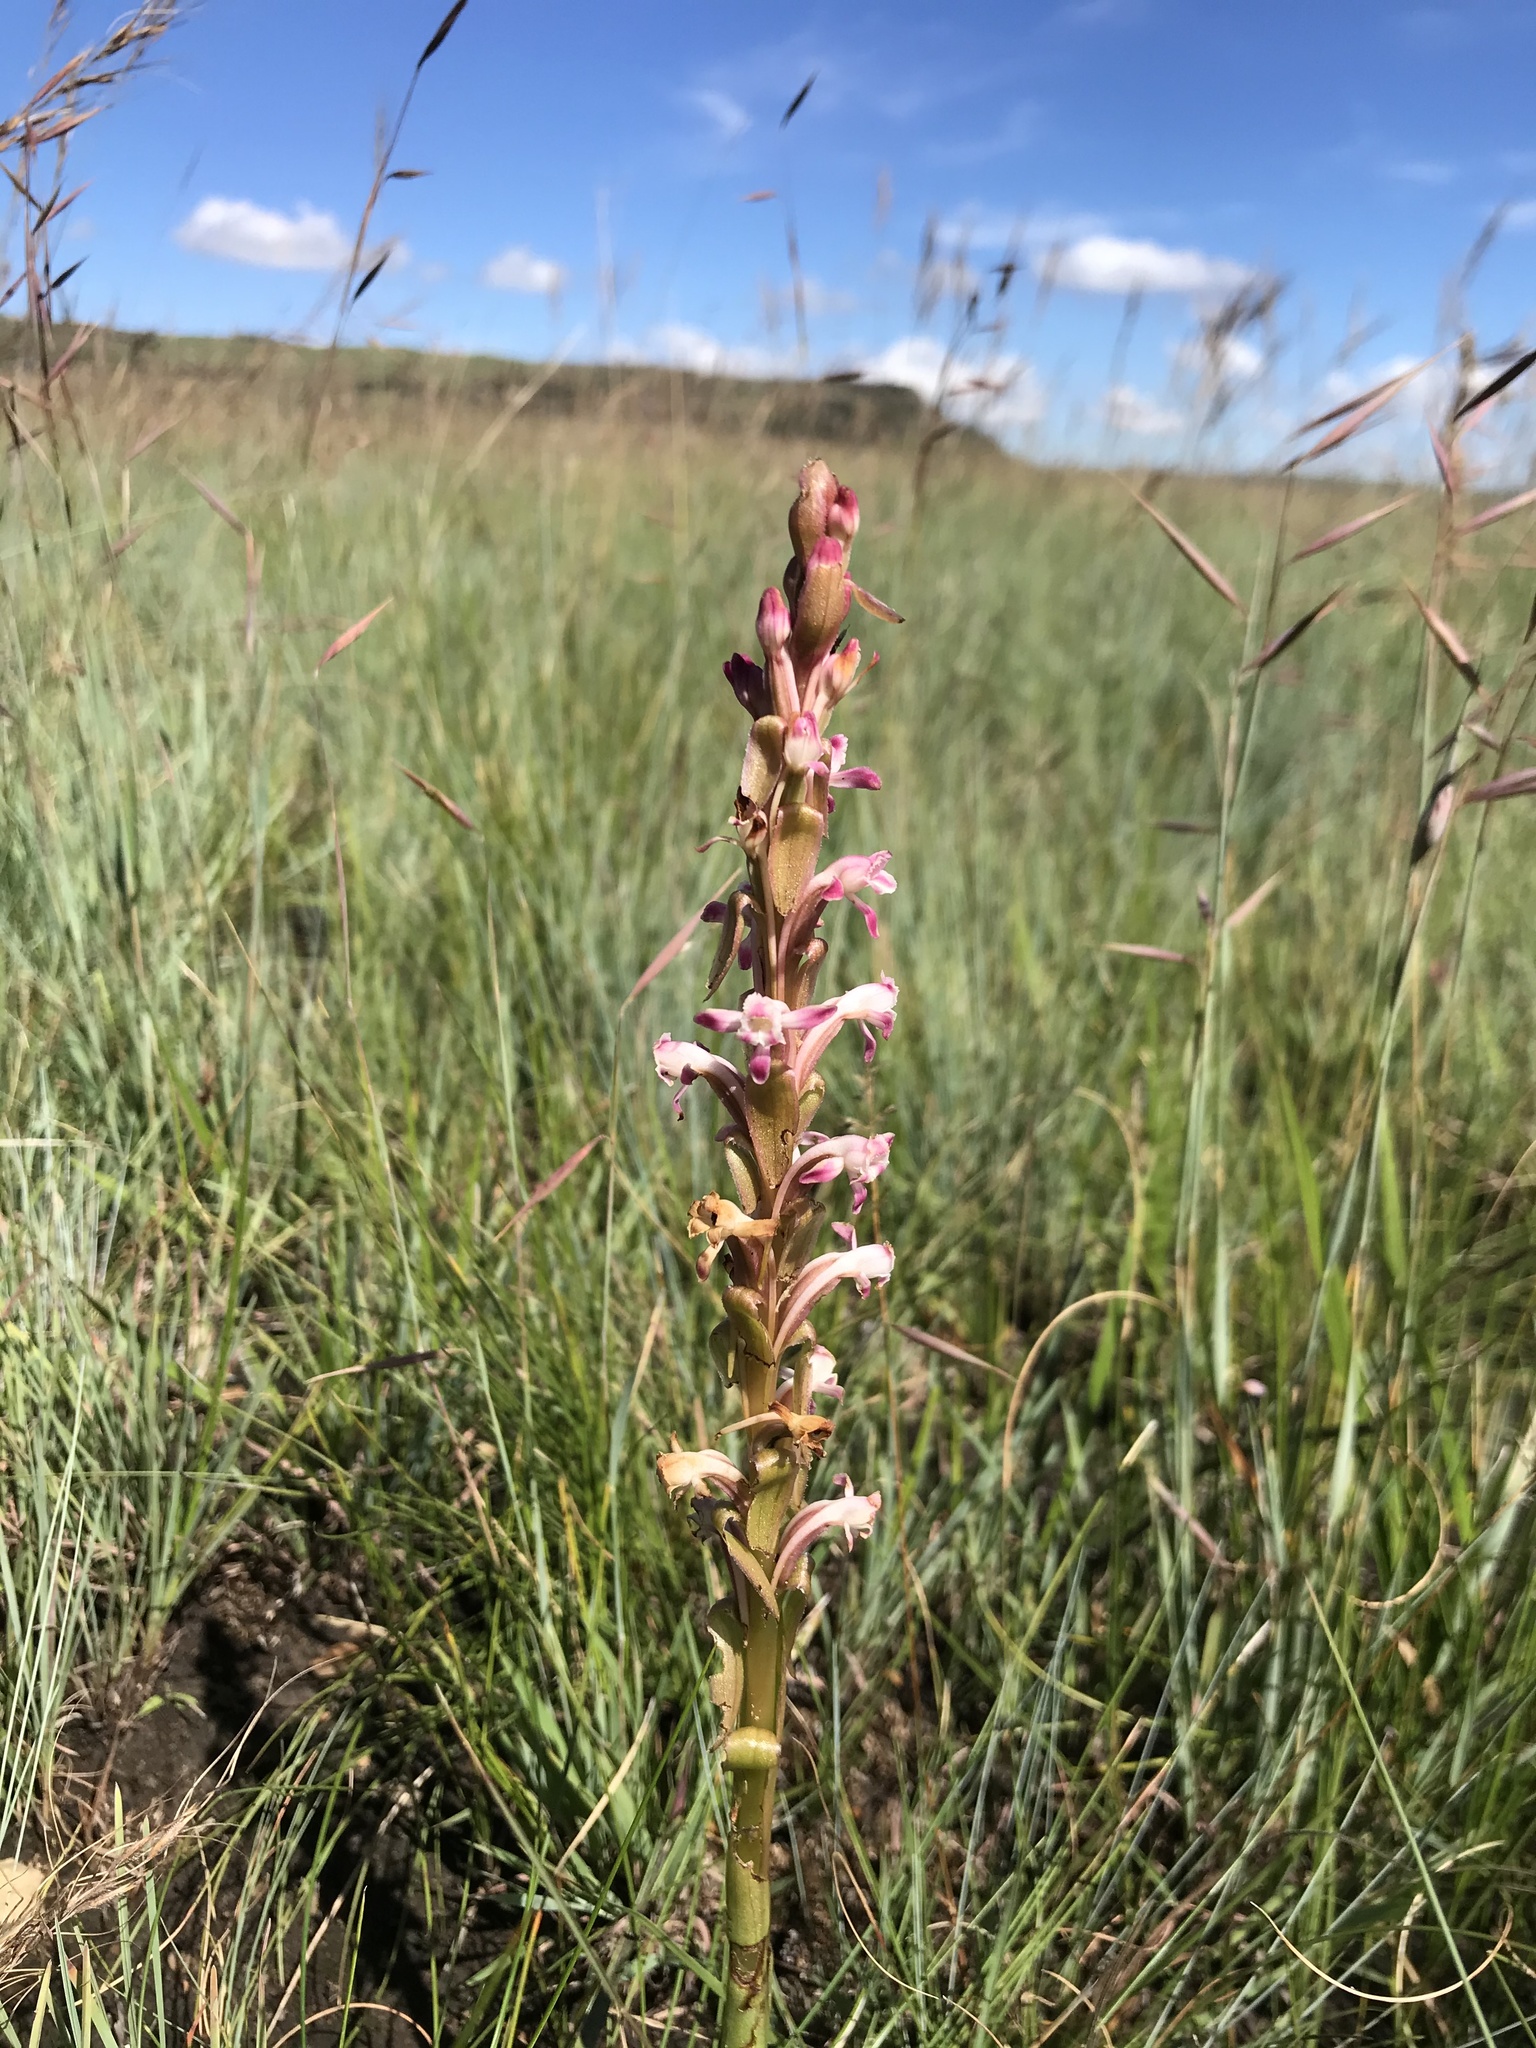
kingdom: Plantae
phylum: Tracheophyta
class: Liliopsida
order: Asparagales
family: Orchidaceae
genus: Satyrium
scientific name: Satyrium longicauda
